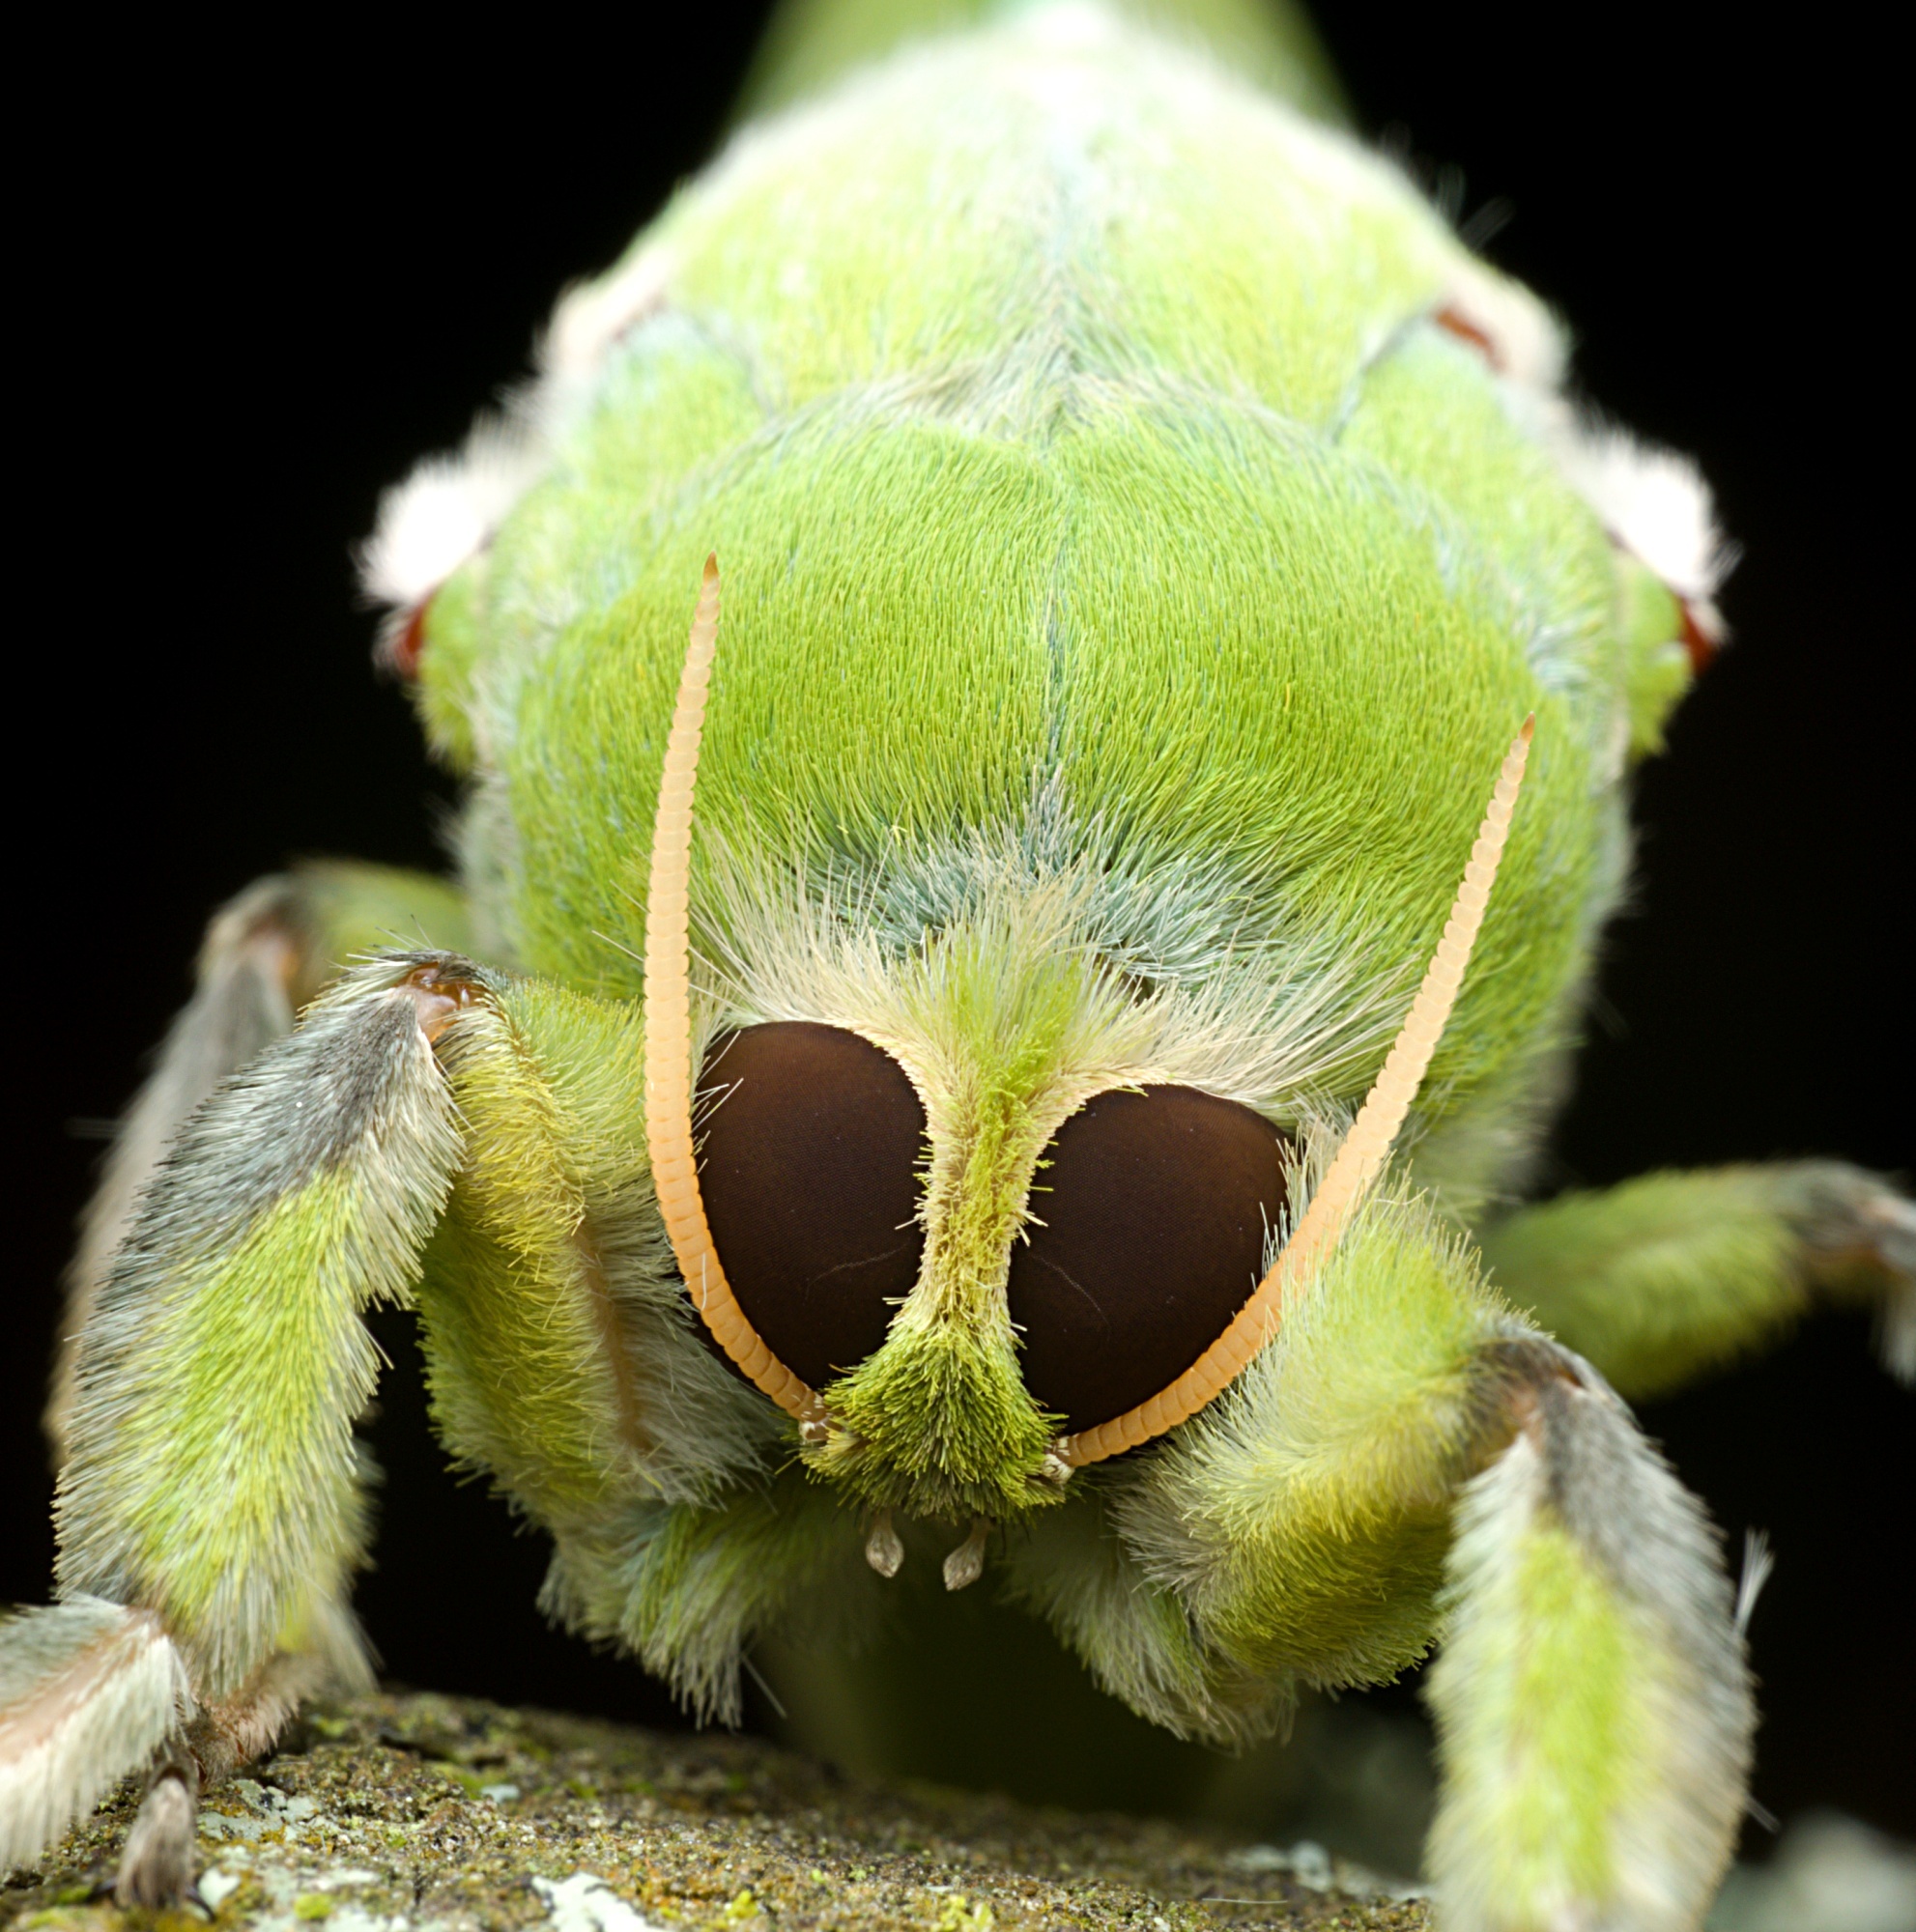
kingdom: Animalia
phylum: Arthropoda
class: Insecta
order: Lepidoptera
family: Hepialidae
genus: Aenetus
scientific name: Aenetus virescens
